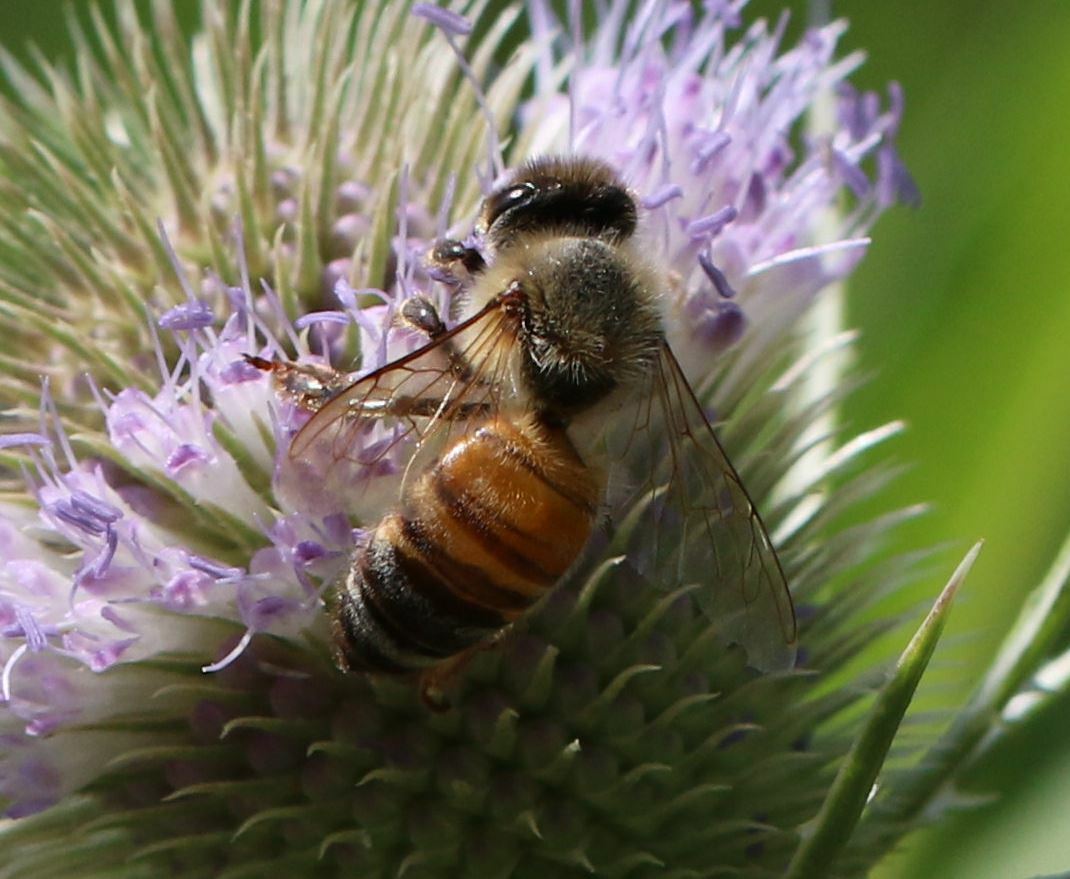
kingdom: Animalia
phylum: Arthropoda
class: Insecta
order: Hymenoptera
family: Apidae
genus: Apis
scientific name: Apis mellifera
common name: Honey bee
